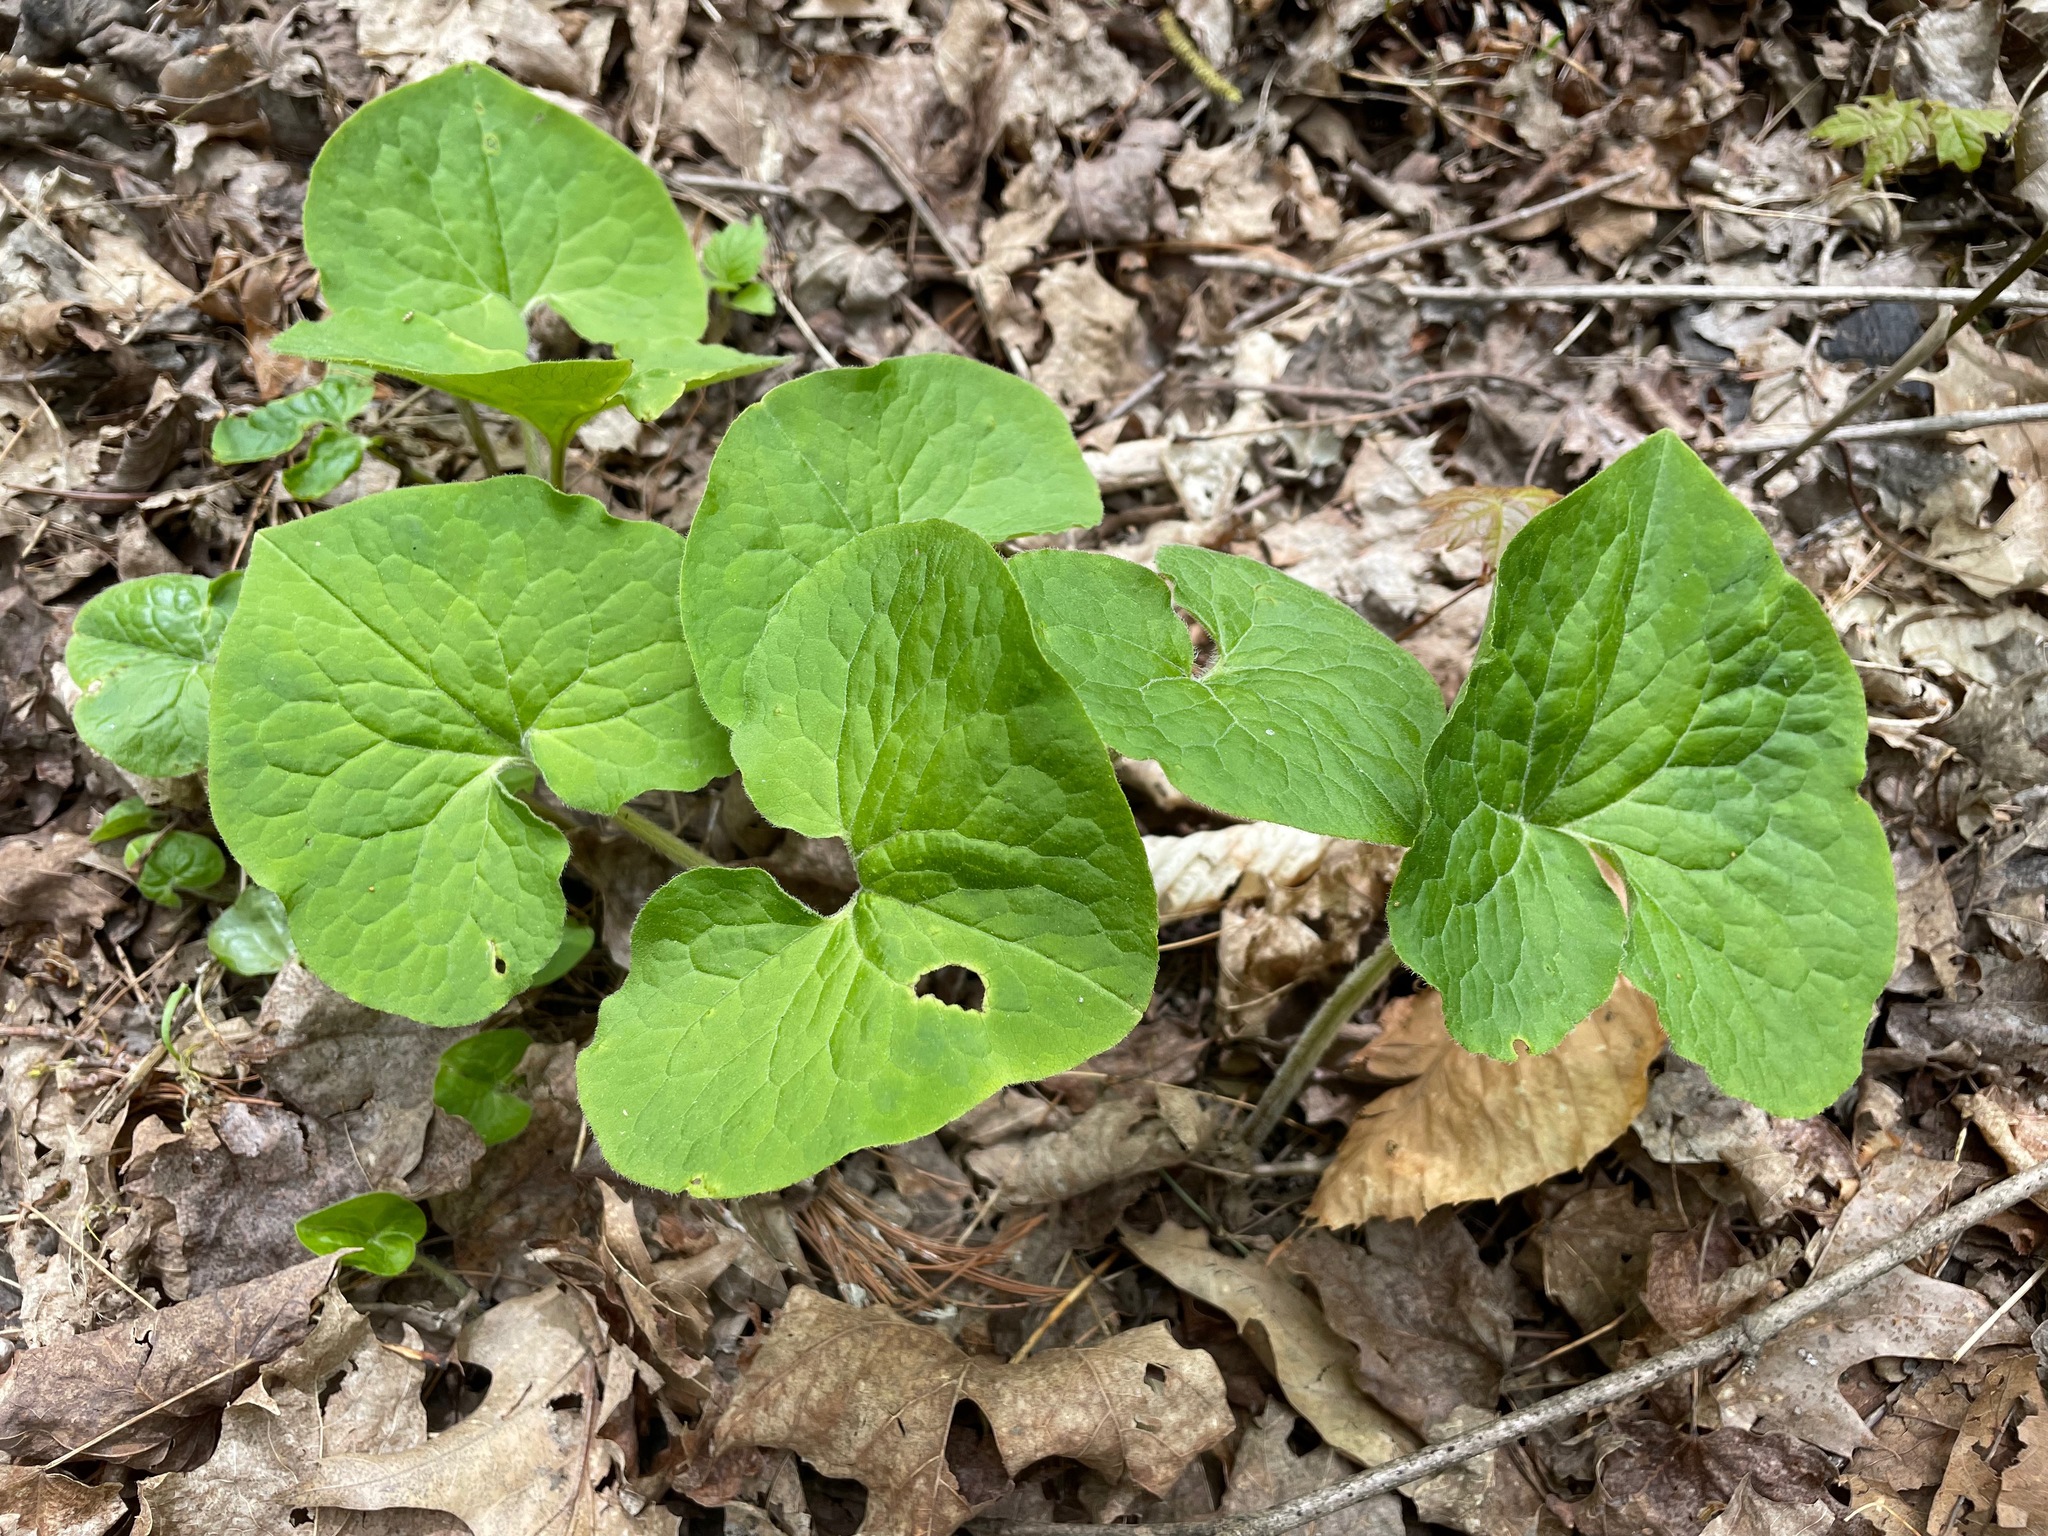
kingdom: Plantae
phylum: Tracheophyta
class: Magnoliopsida
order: Piperales
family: Aristolochiaceae
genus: Asarum
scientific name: Asarum canadense
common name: Wild ginger
